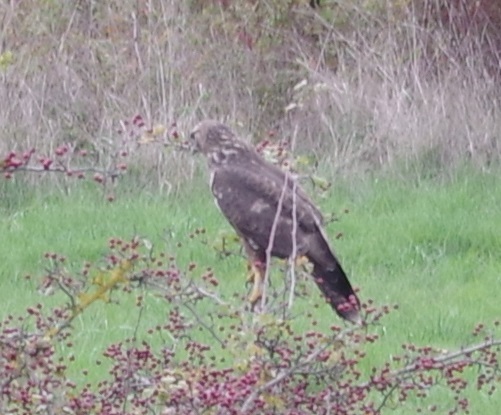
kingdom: Animalia
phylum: Chordata
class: Aves
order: Accipitriformes
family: Accipitridae
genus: Buteo
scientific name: Buteo buteo
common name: Common buzzard
